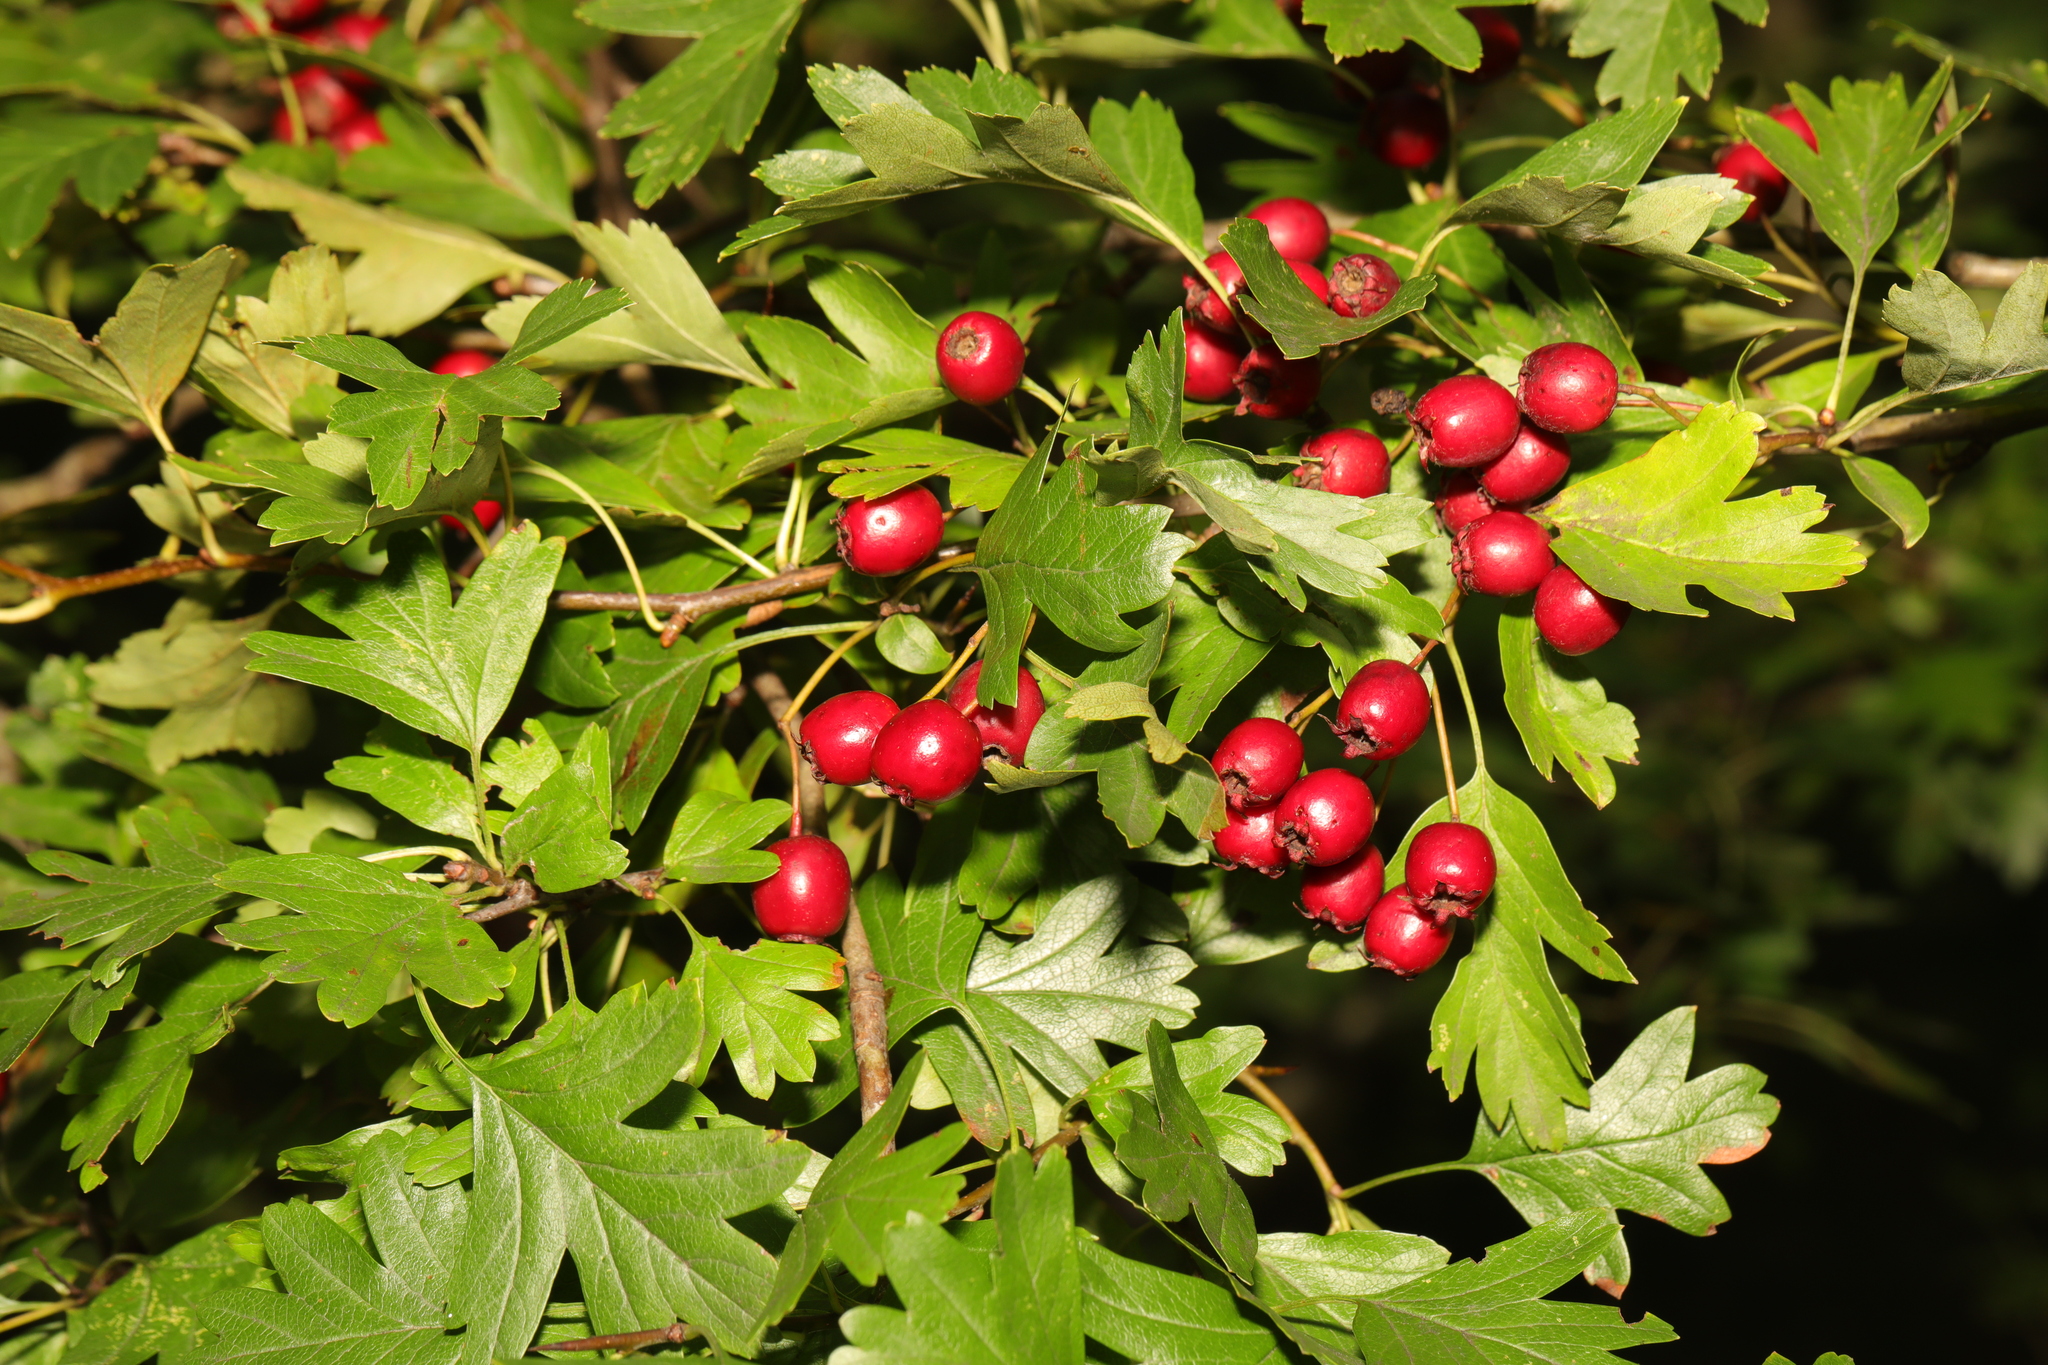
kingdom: Plantae
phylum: Tracheophyta
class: Magnoliopsida
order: Rosales
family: Rosaceae
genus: Crataegus
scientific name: Crataegus monogyna
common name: Hawthorn
